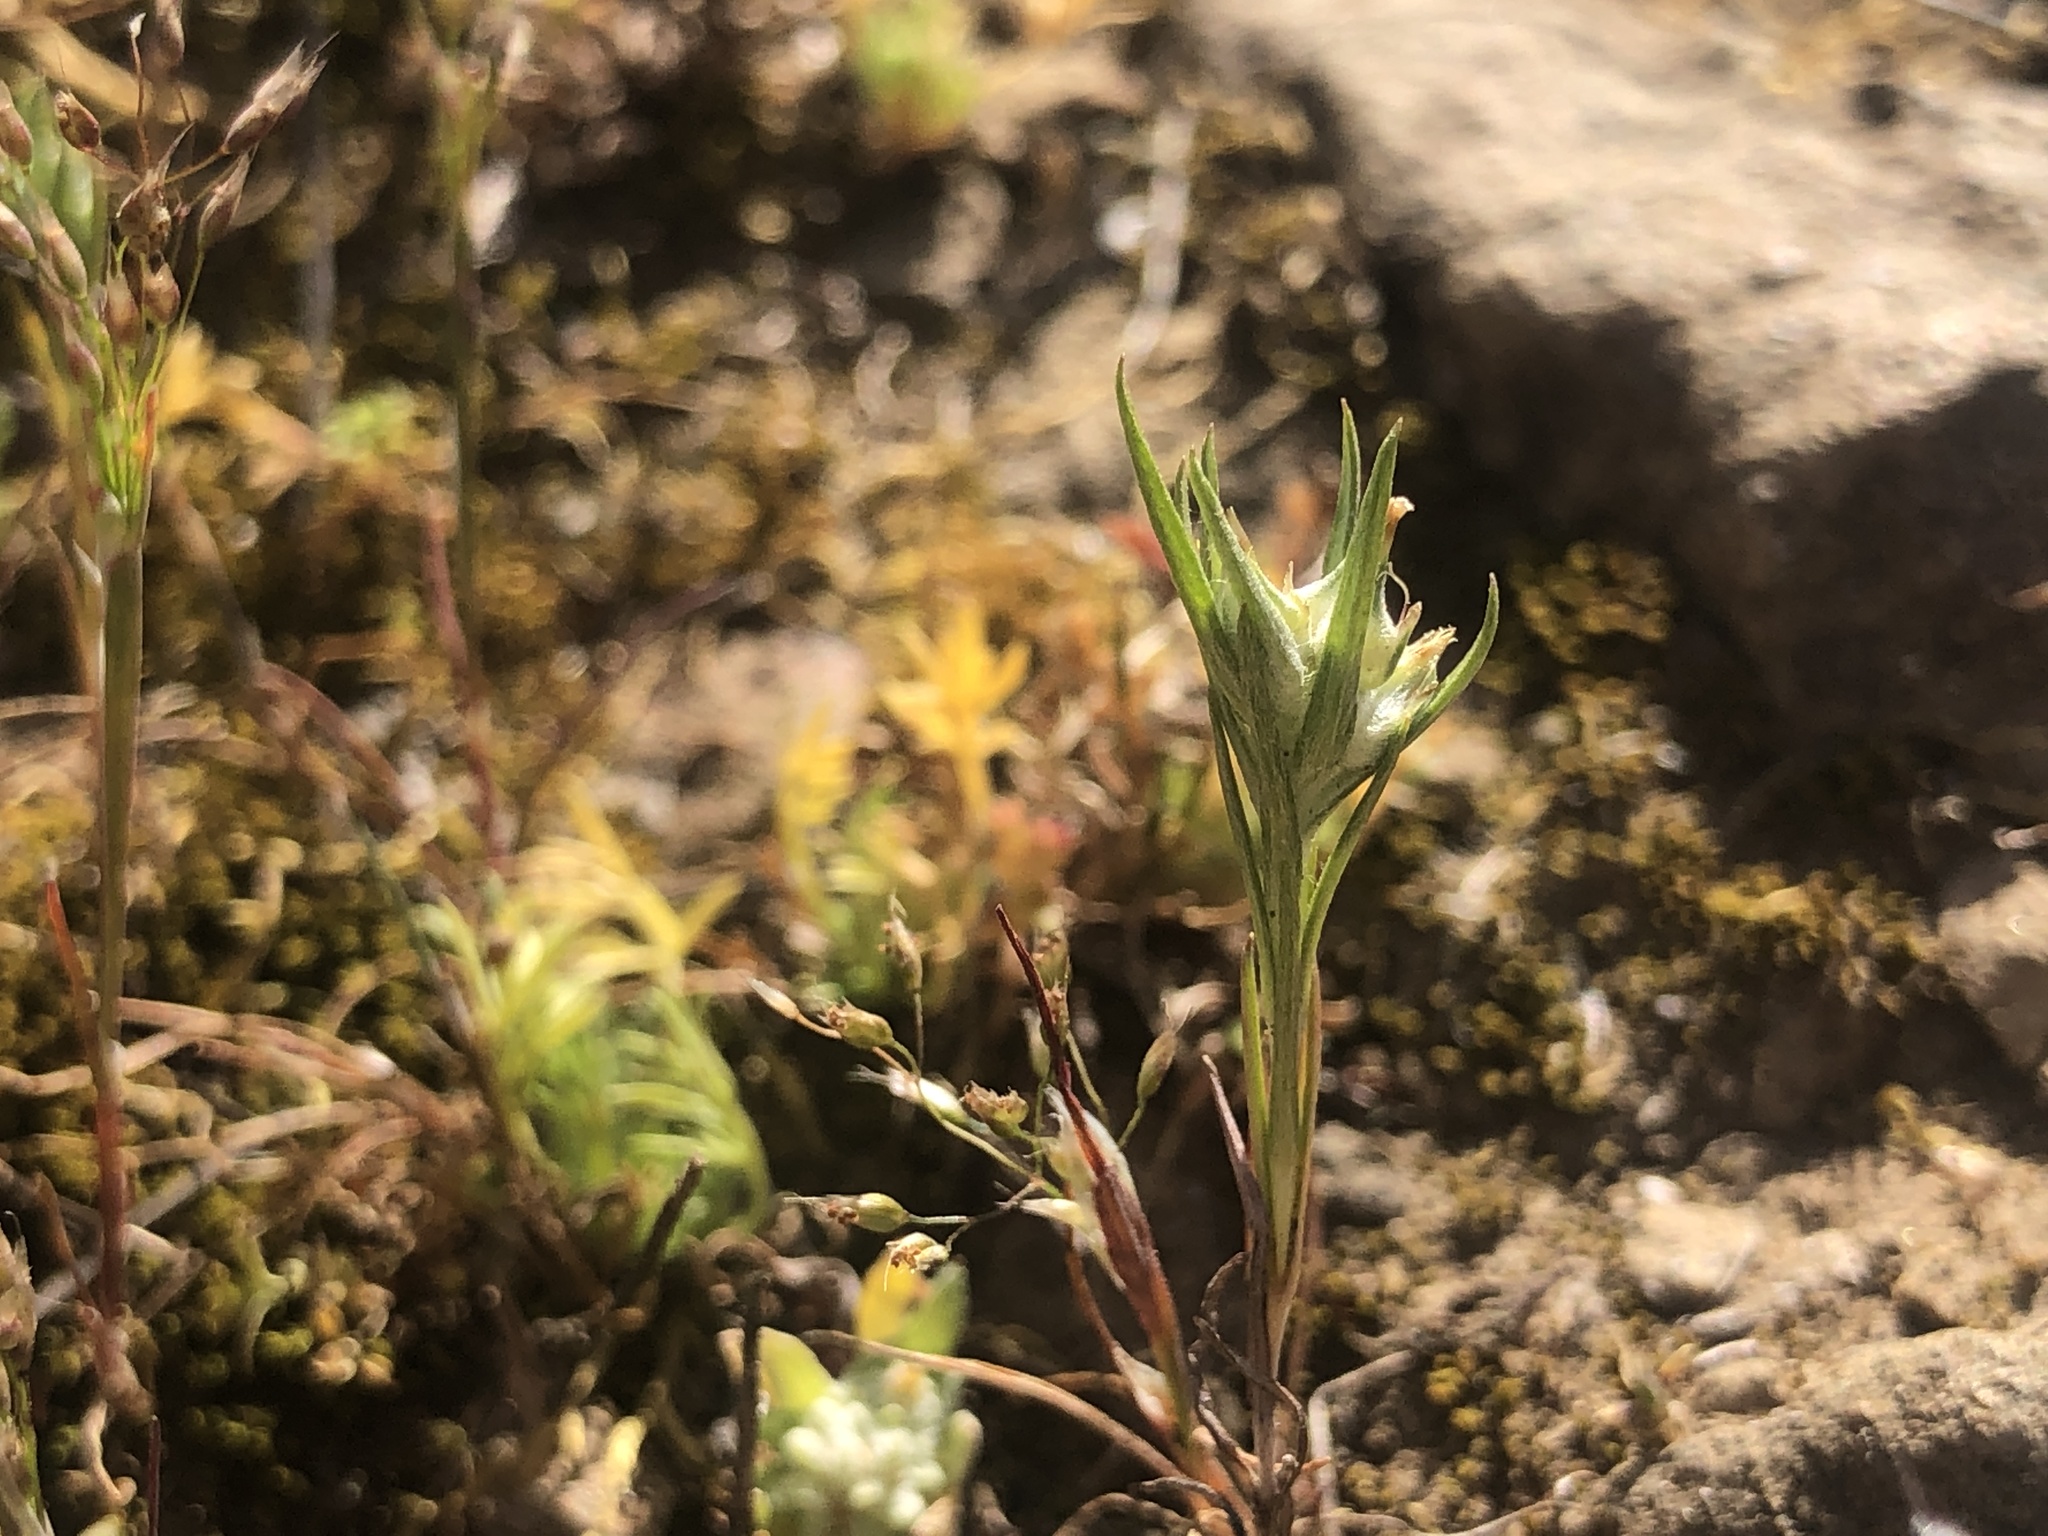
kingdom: Plantae
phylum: Tracheophyta
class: Magnoliopsida
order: Asterales
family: Asteraceae
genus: Logfia
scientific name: Logfia gallica
